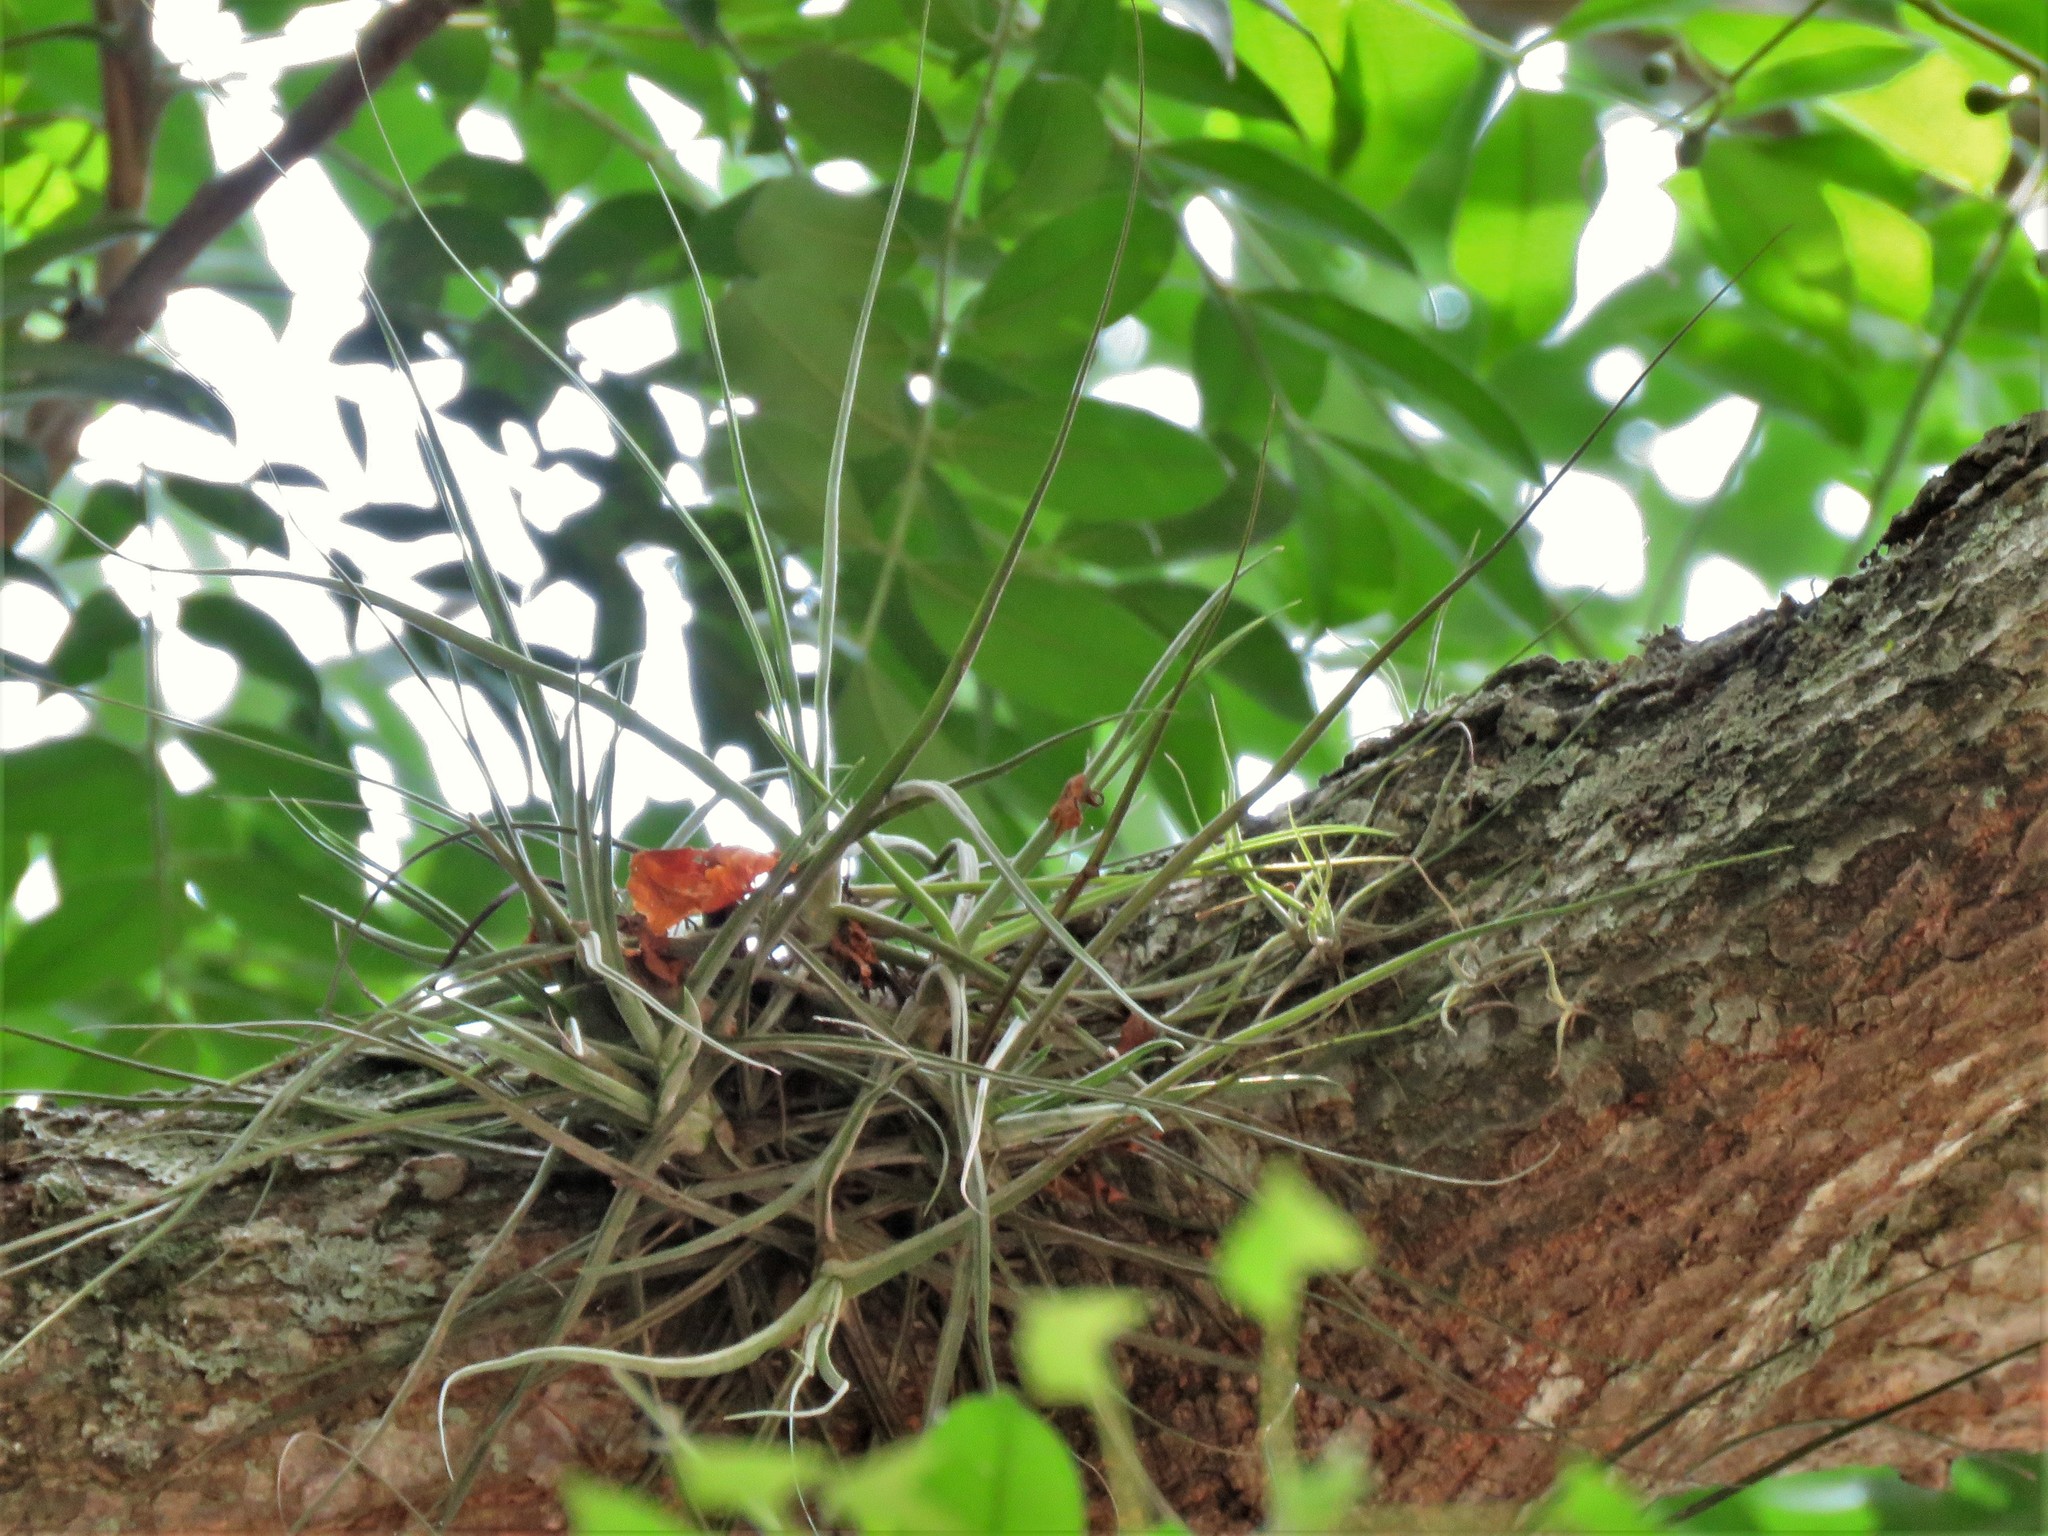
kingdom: Plantae
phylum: Tracheophyta
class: Liliopsida
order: Poales
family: Bromeliaceae
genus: Tillandsia
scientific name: Tillandsia schiedeana
